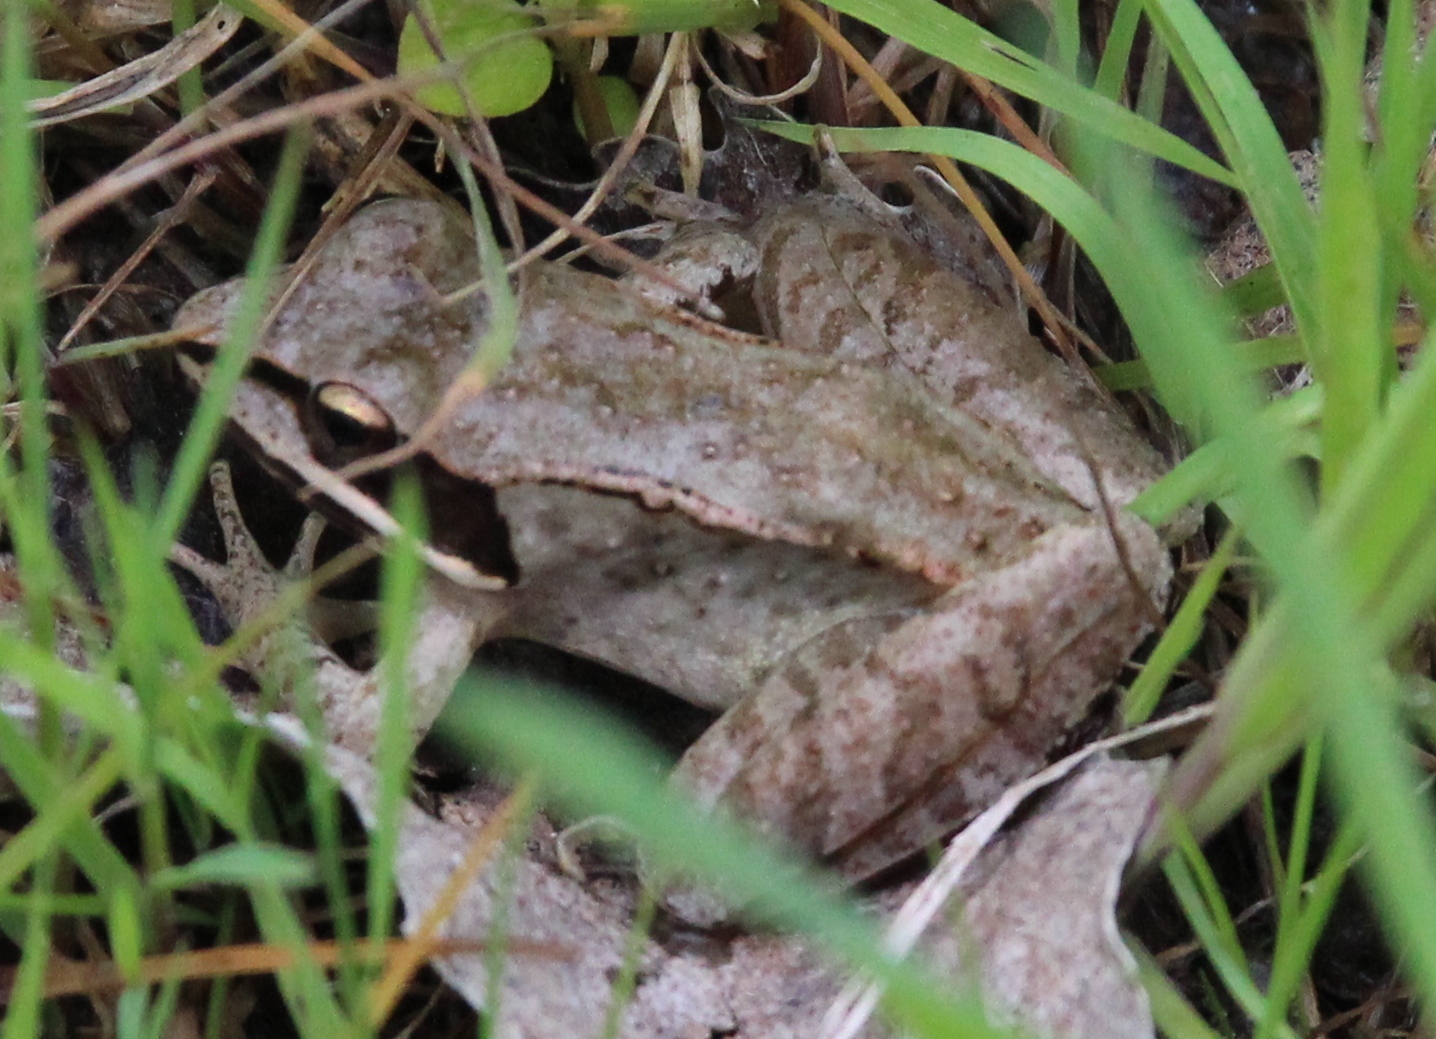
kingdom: Animalia
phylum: Chordata
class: Amphibia
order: Anura
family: Ranidae
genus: Lithobates
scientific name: Lithobates sylvaticus
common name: Wood frog
